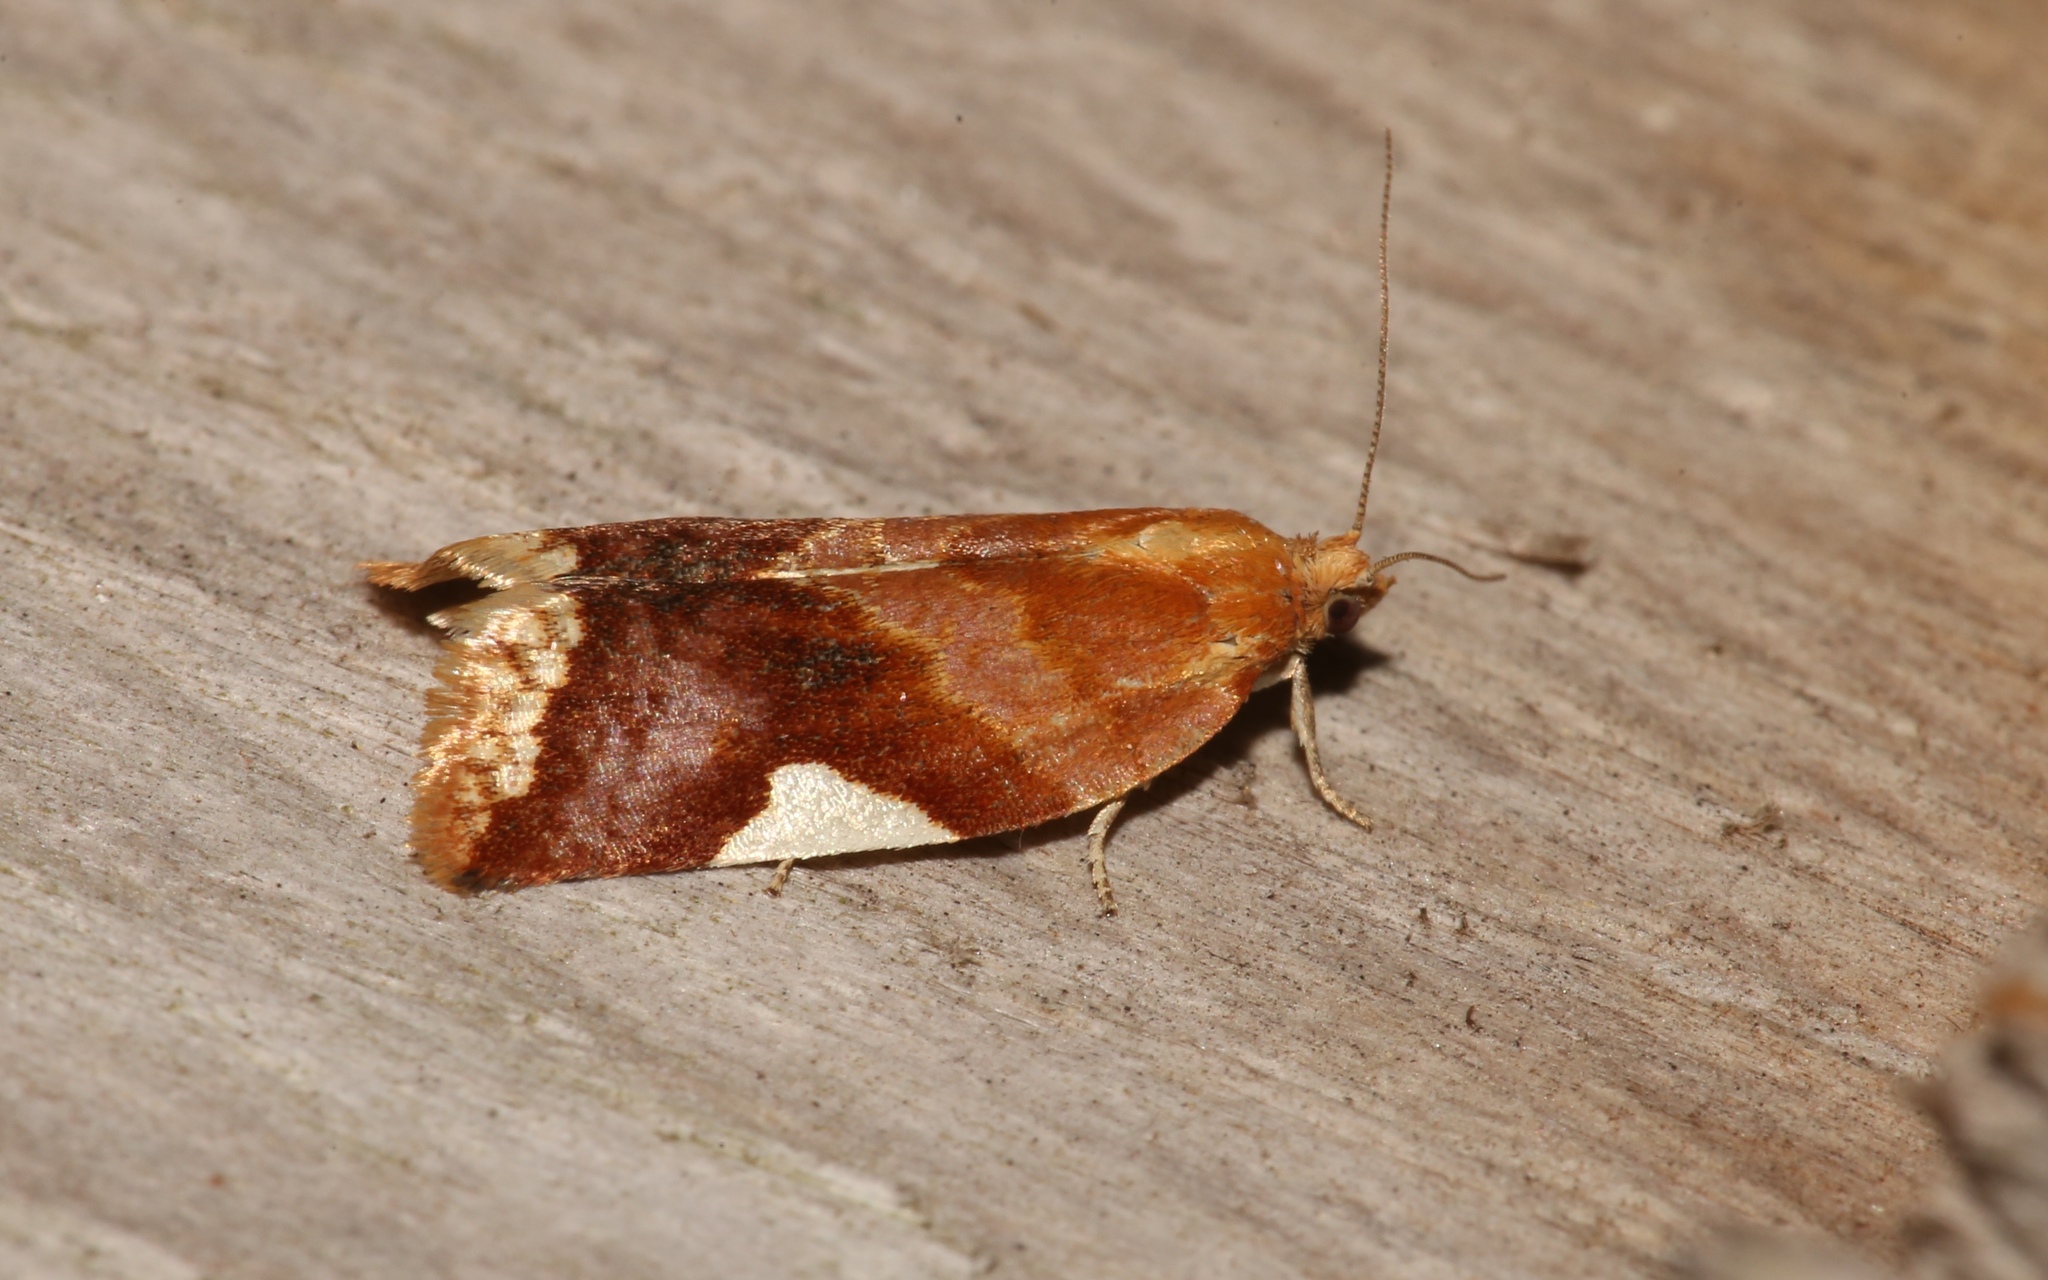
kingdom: Animalia
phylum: Arthropoda
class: Insecta
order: Lepidoptera
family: Tortricidae
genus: Clepsis
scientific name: Clepsis persicana
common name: White triangle tortrix
